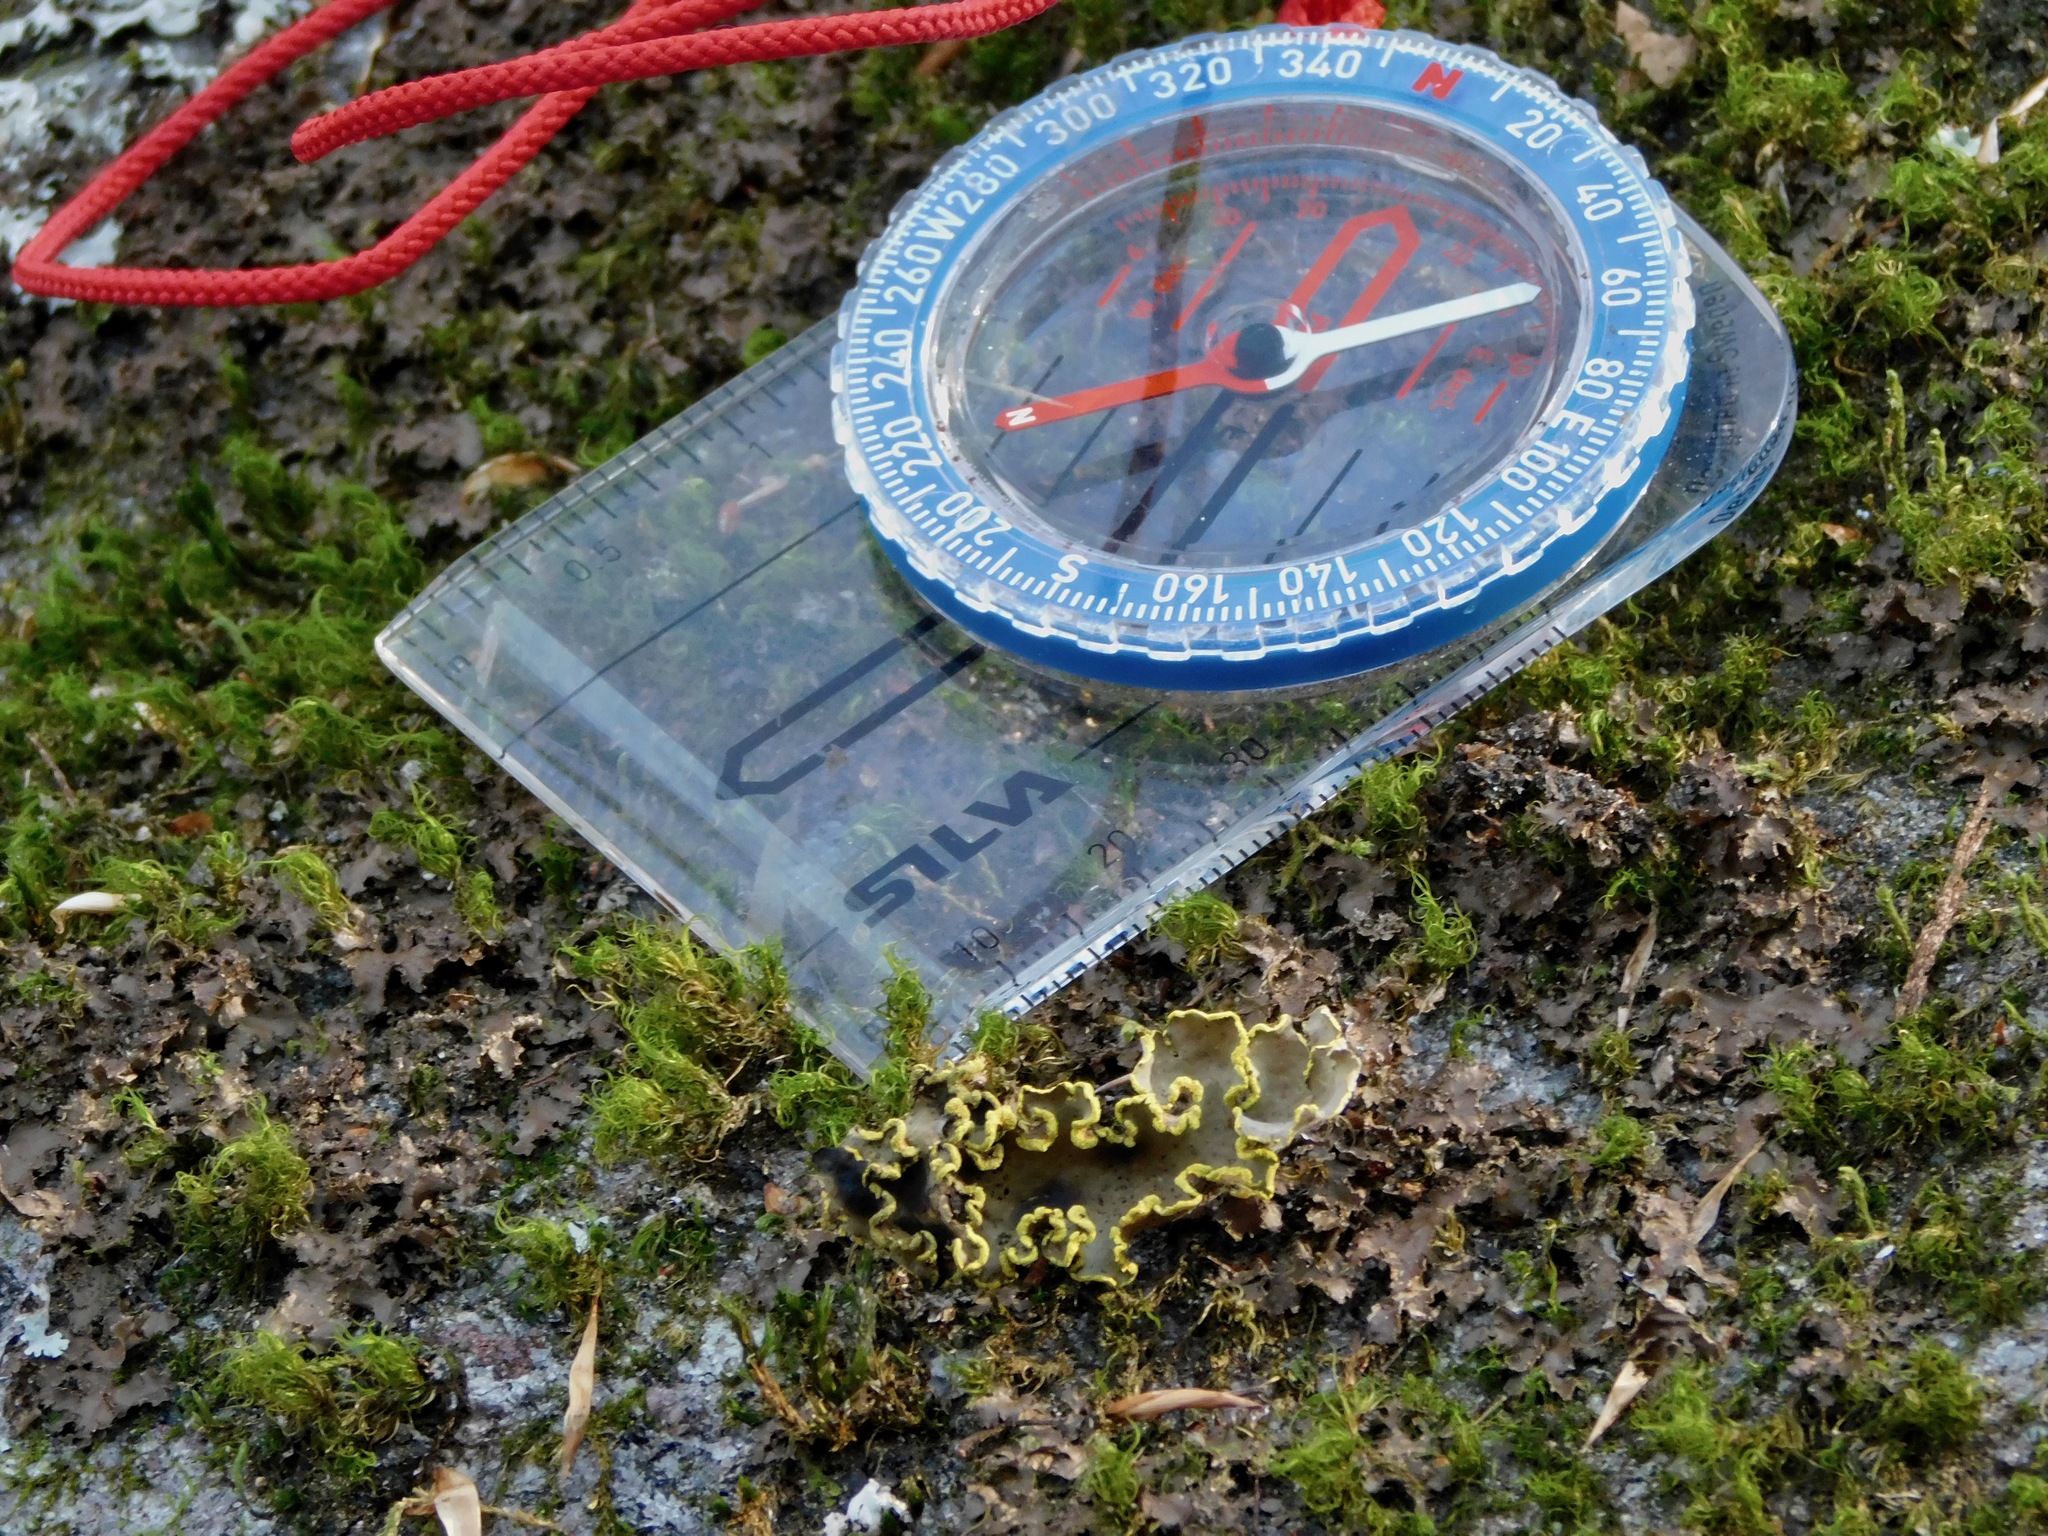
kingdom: Fungi
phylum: Ascomycota
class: Lecanoromycetes
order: Peltigerales
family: Lobariaceae
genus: Pseudocyphellaria
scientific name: Pseudocyphellaria aurata
